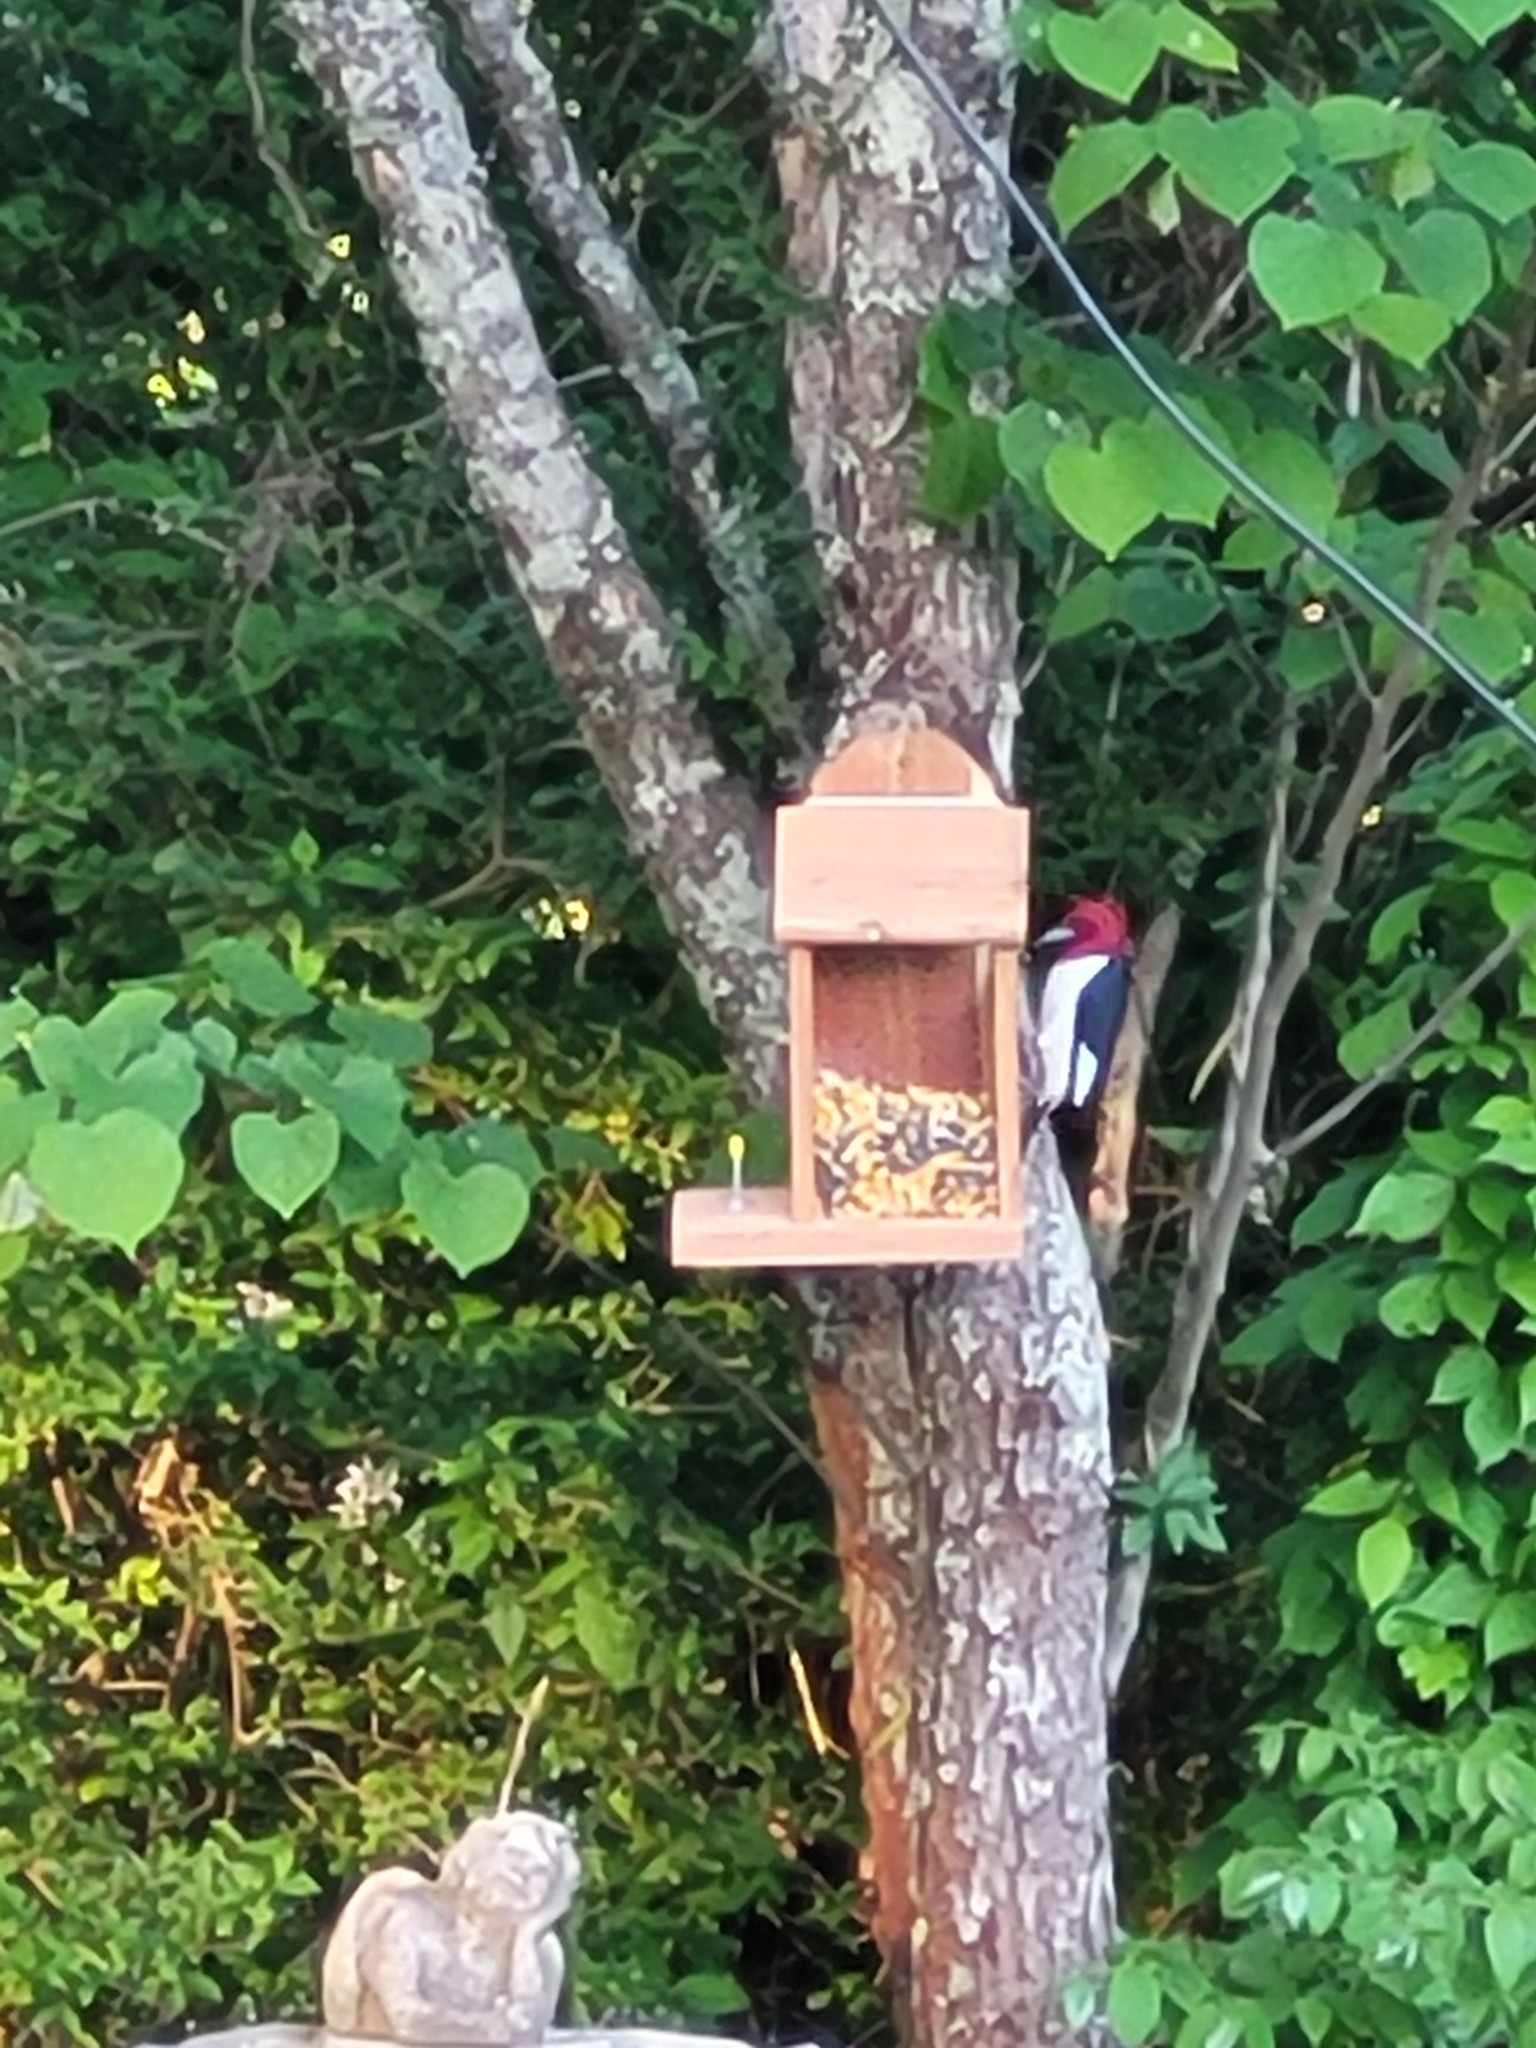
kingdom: Animalia
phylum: Chordata
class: Aves
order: Piciformes
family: Picidae
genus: Melanerpes
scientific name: Melanerpes erythrocephalus
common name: Red-headed woodpecker
